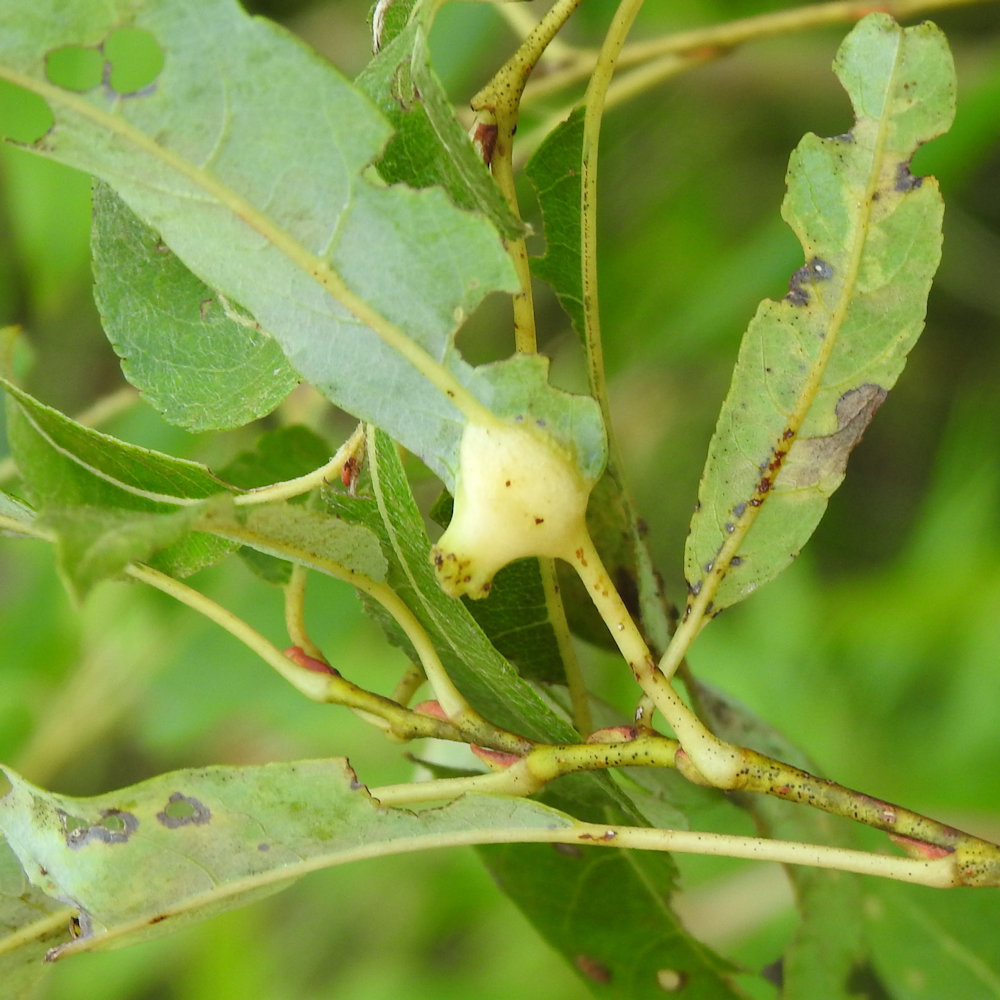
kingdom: Animalia
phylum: Arthropoda
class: Insecta
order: Diptera
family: Cecidomyiidae
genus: Iteomyia
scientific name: Iteomyia salicisverruca
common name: Willow leaf gall midge
